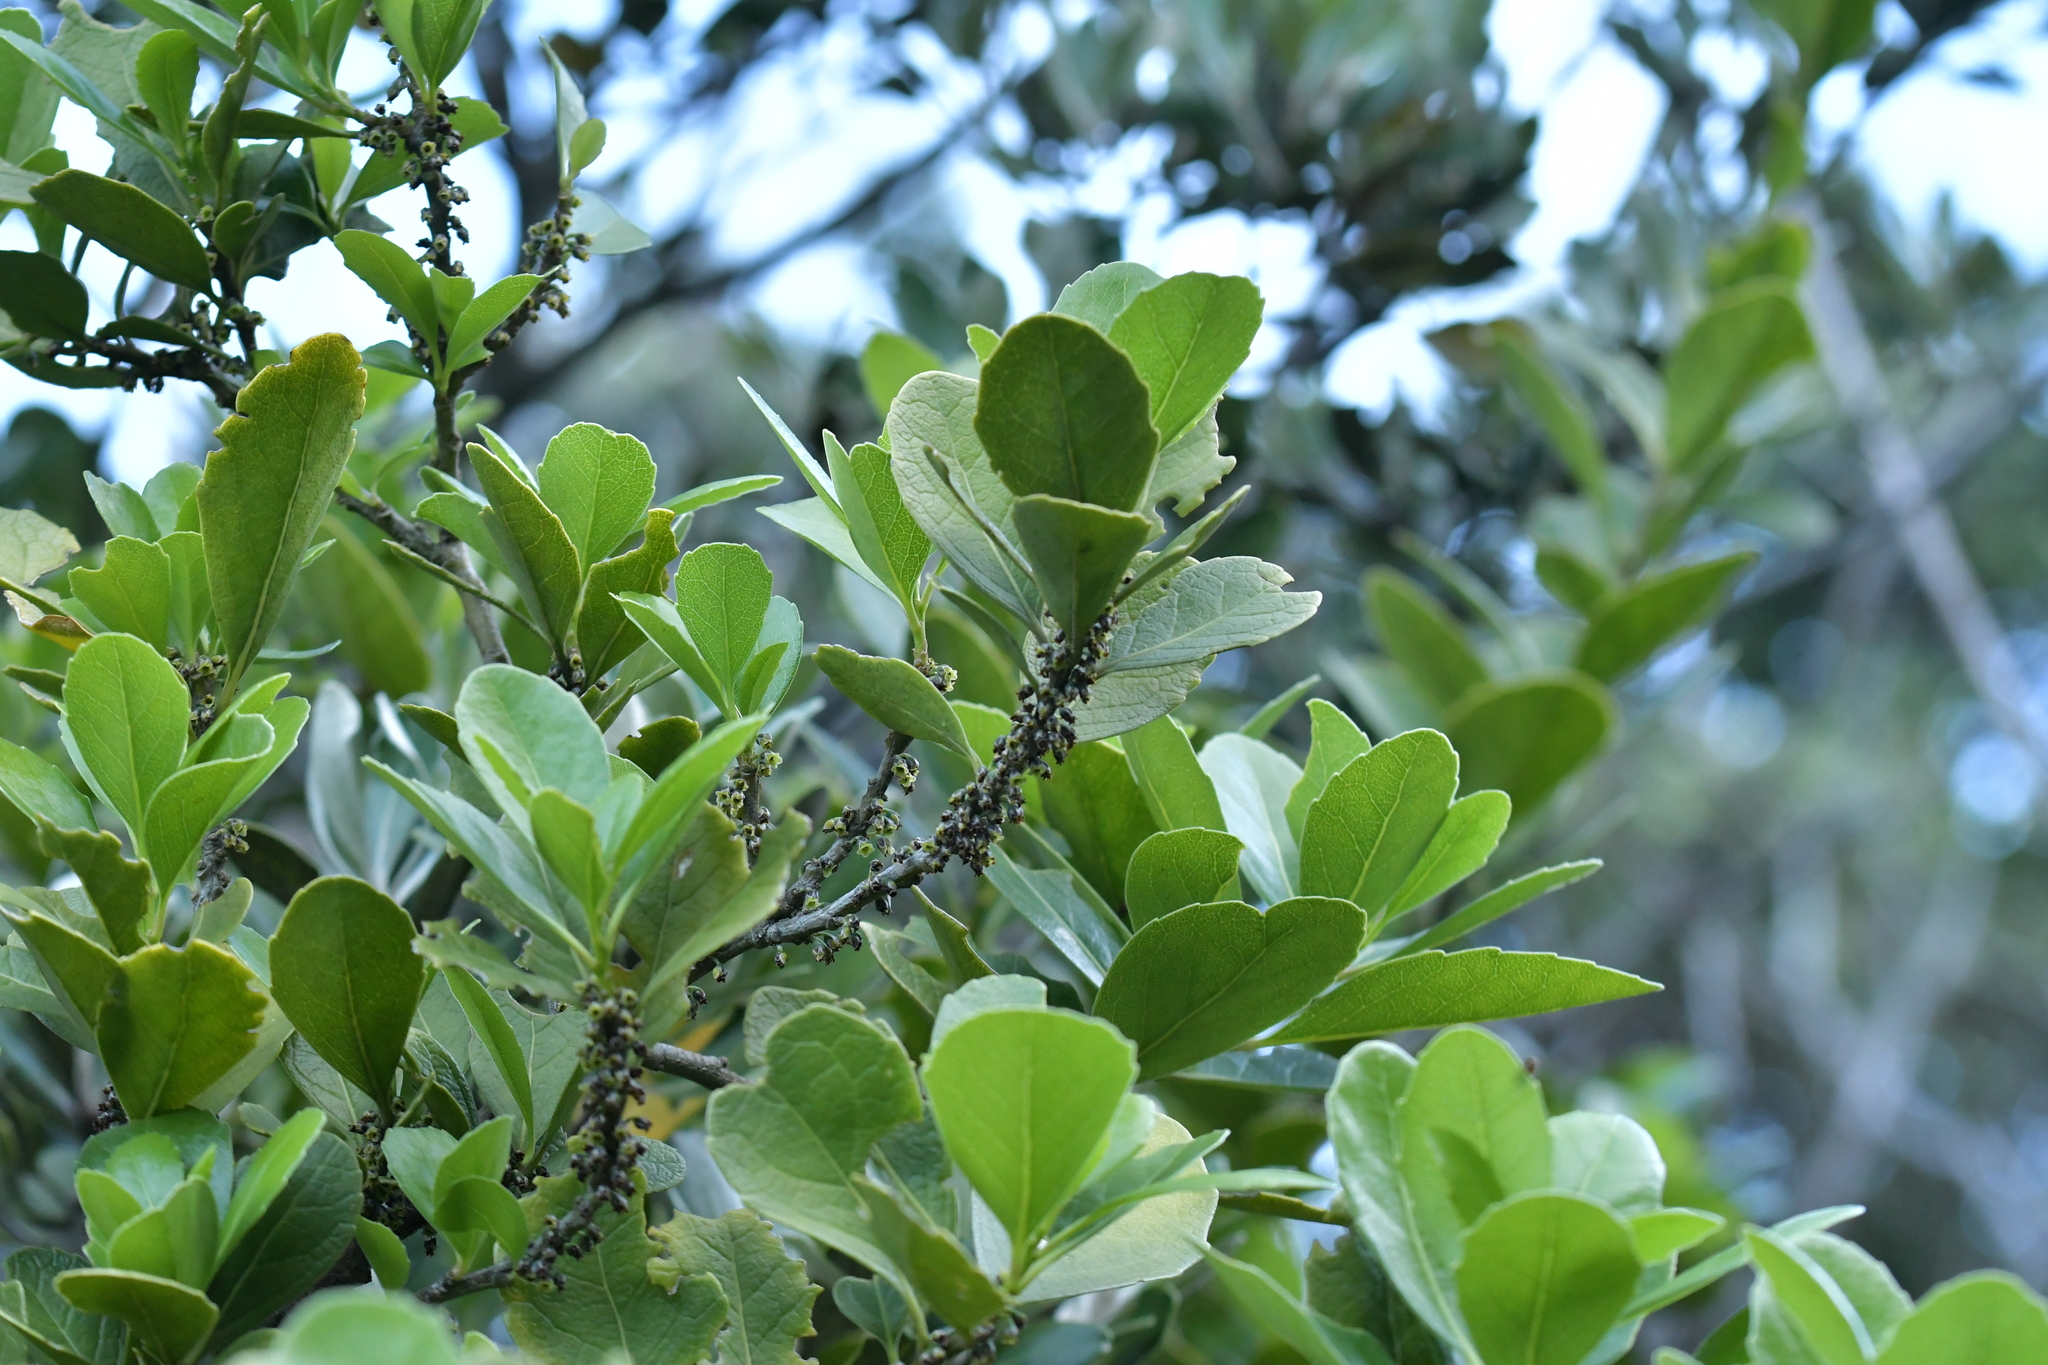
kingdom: Plantae
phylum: Tracheophyta
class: Magnoliopsida
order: Malpighiales
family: Violaceae
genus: Melicytus
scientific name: Melicytus novae-zelandiae
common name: Coastal mahoe
